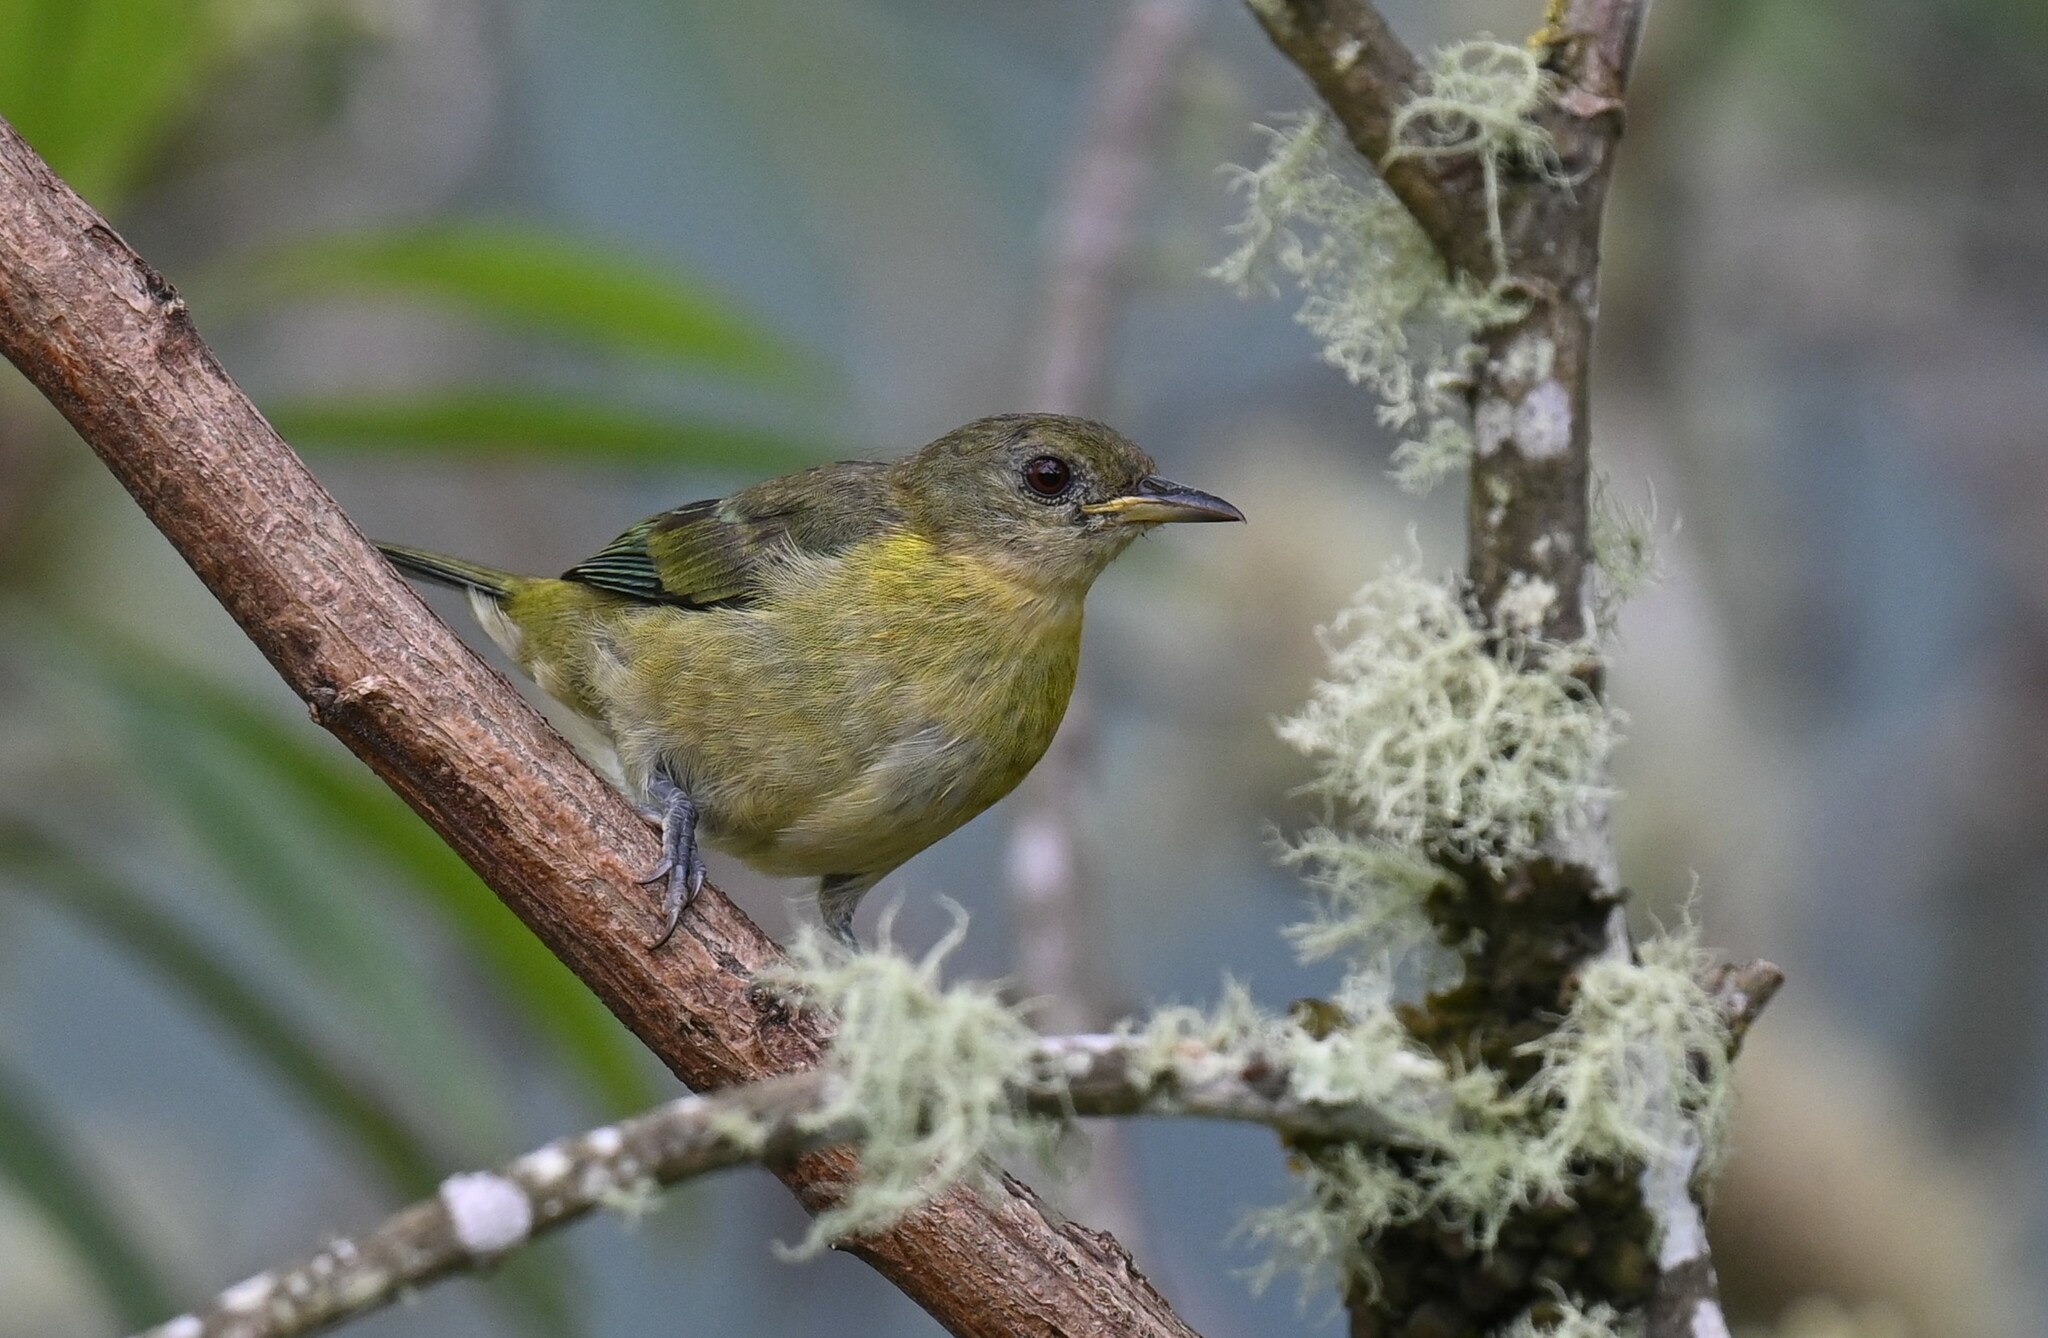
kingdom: Animalia
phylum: Chordata
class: Aves
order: Passeriformes
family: Thraupidae
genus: Iridophanes
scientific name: Iridophanes pulcherrimus
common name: Golden-collared honeycreeper
